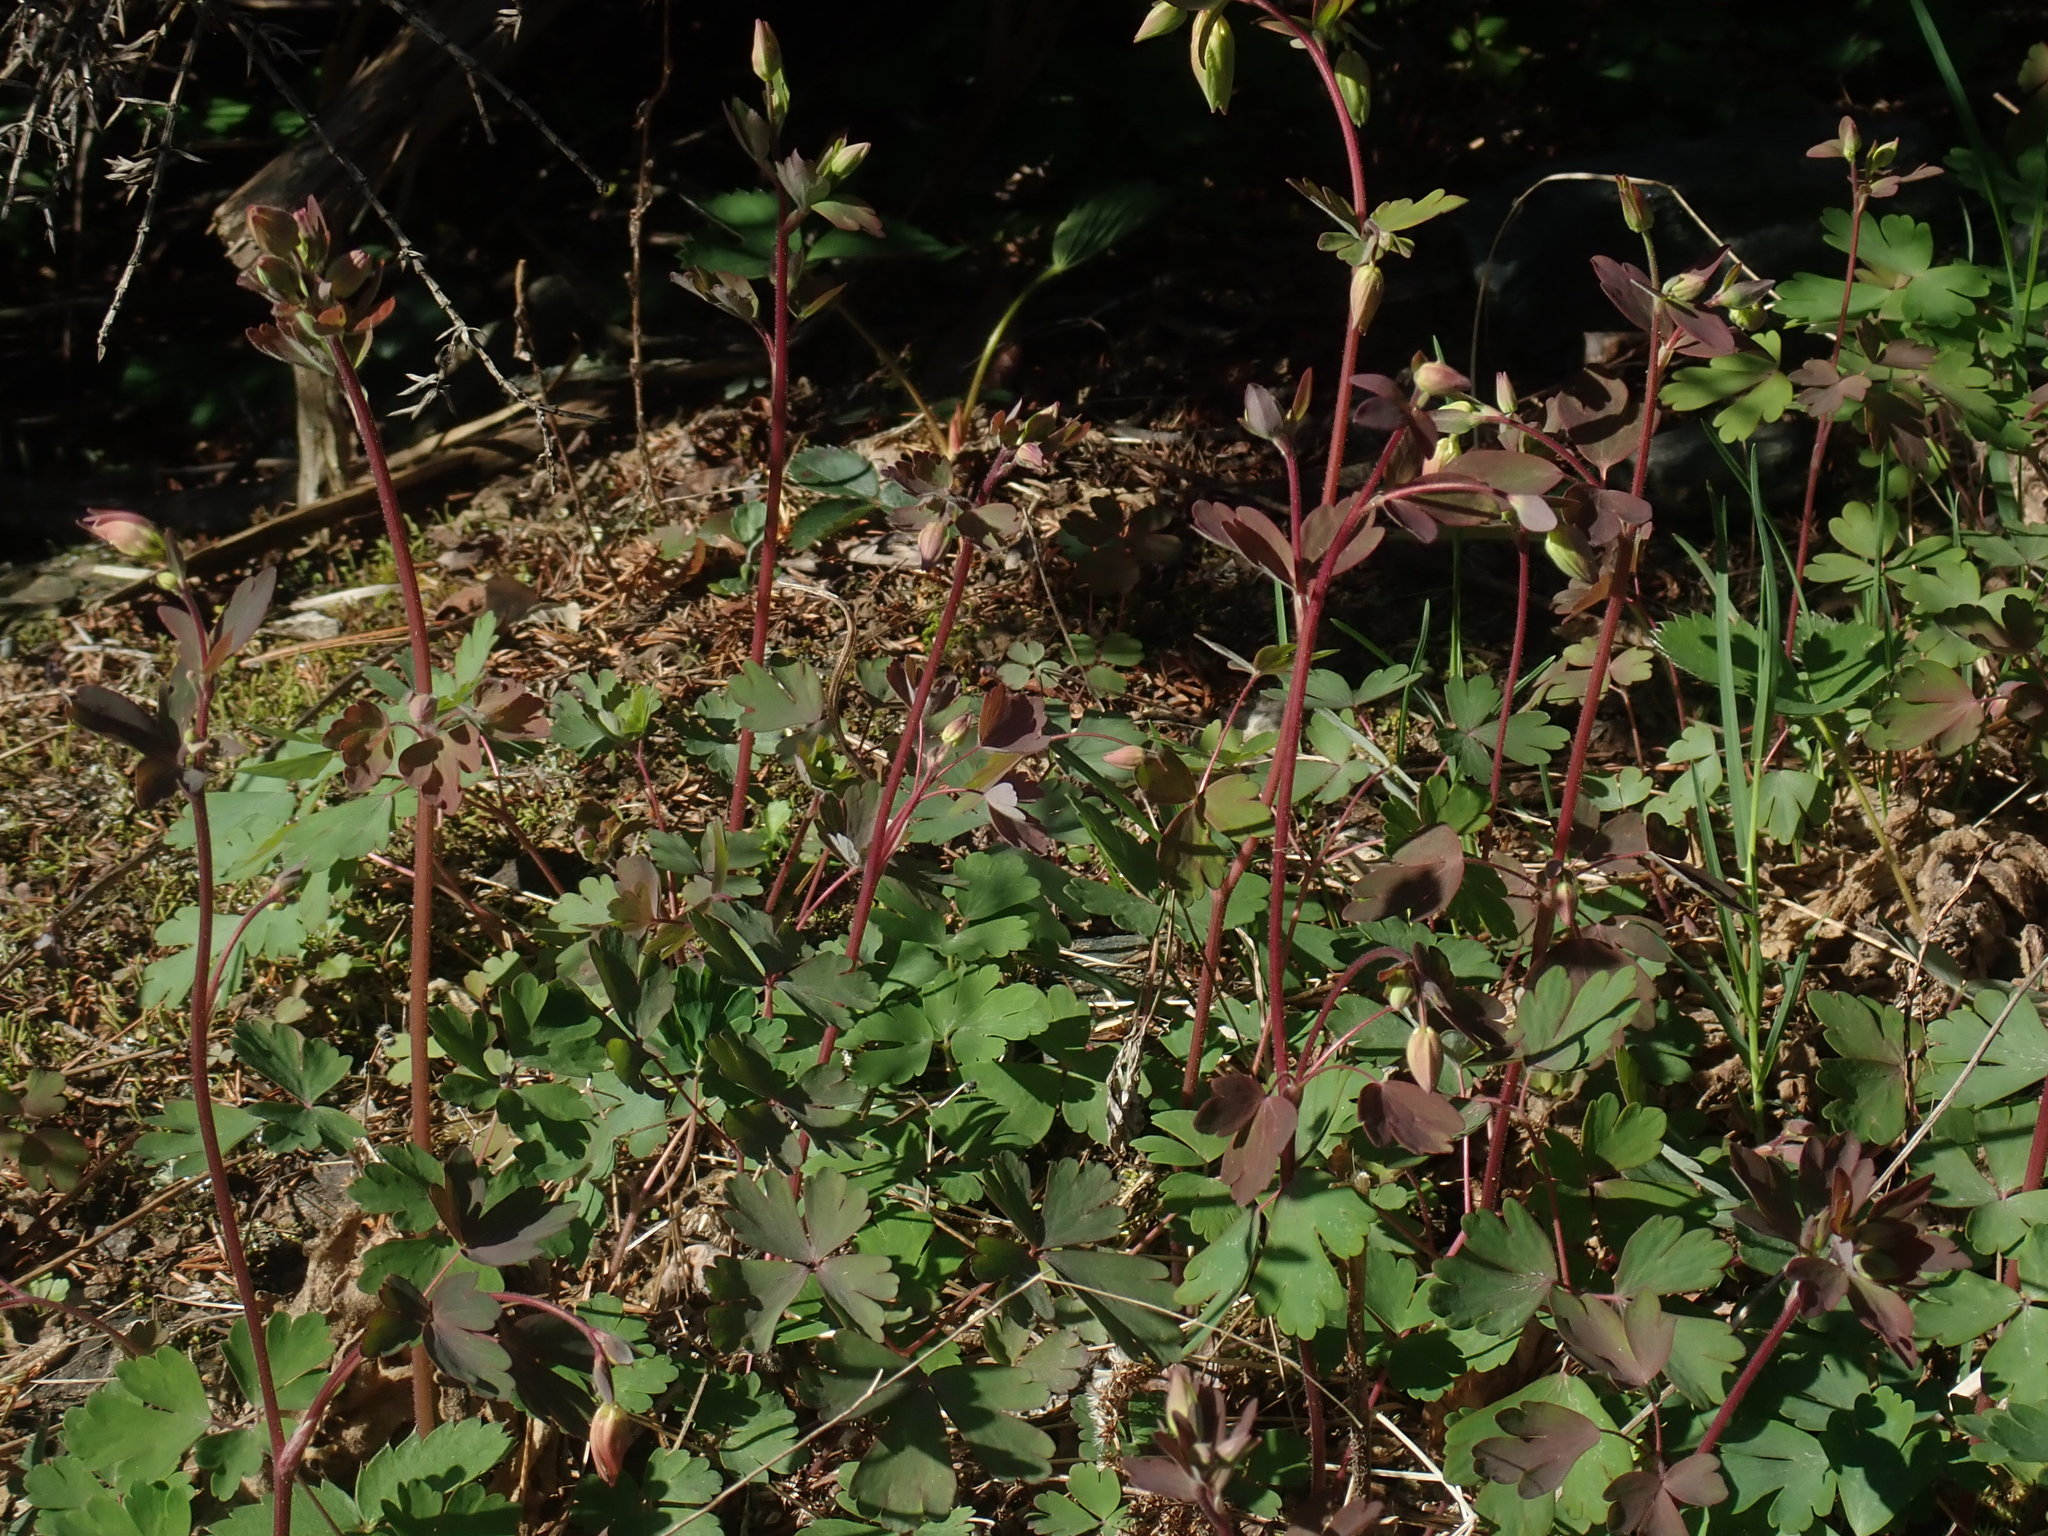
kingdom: Plantae
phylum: Tracheophyta
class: Magnoliopsida
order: Ranunculales
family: Ranunculaceae
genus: Aquilegia
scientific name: Aquilegia canadensis
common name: American columbine
